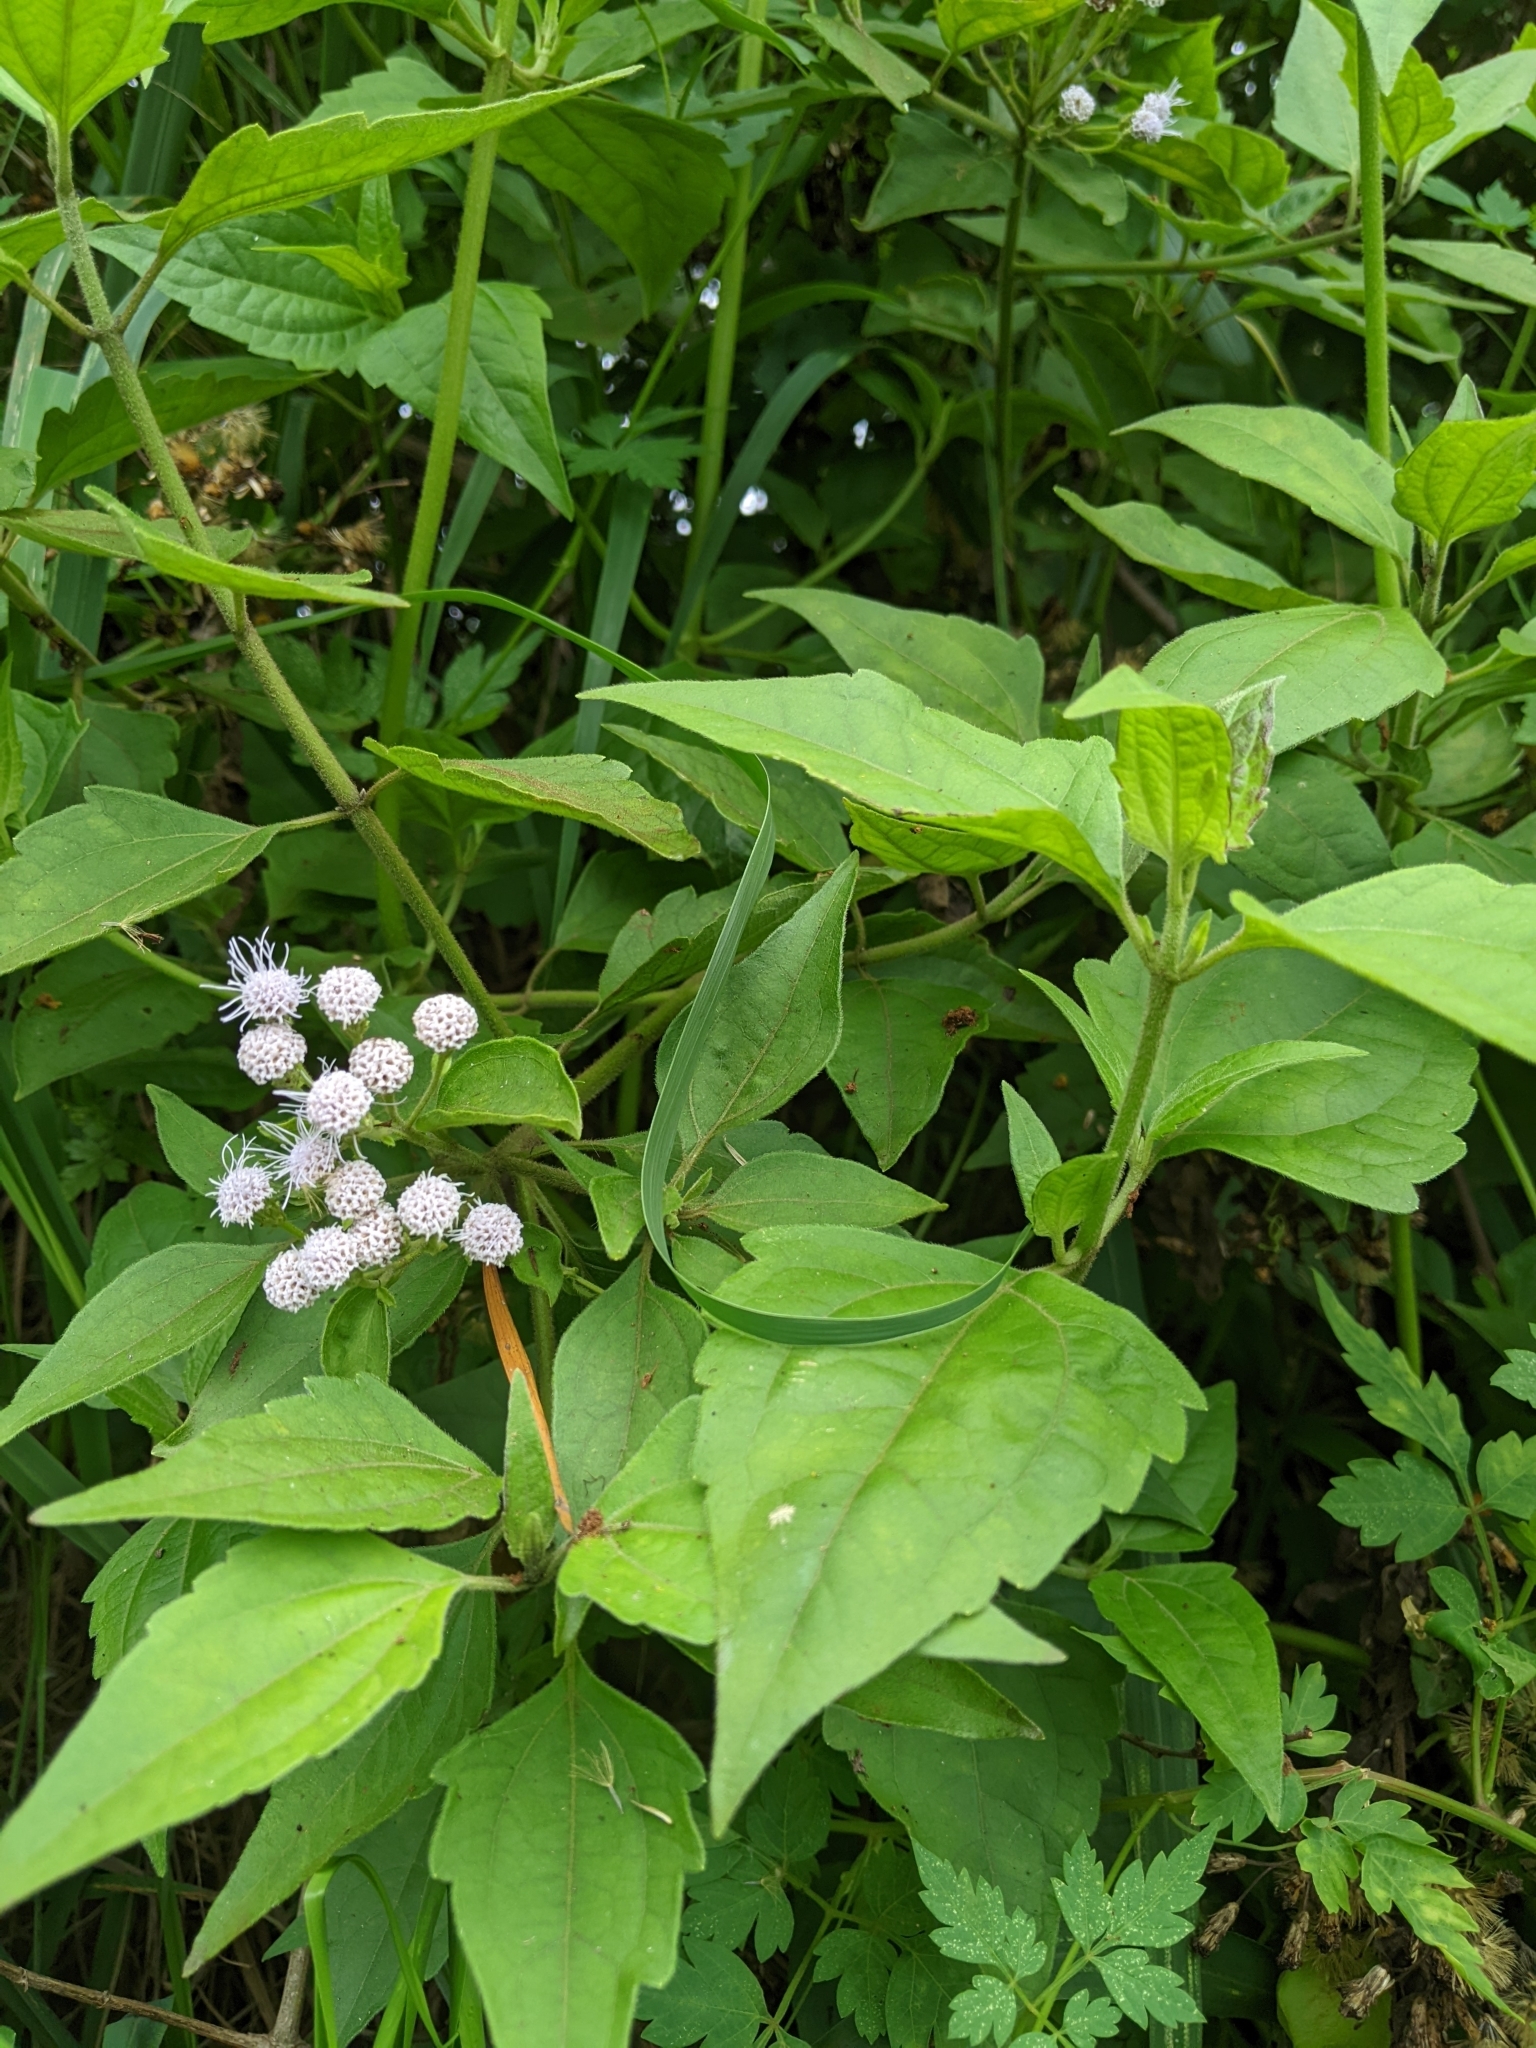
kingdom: Plantae
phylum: Tracheophyta
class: Magnoliopsida
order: Asterales
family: Asteraceae
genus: Chromolaena
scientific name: Chromolaena odorata
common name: Siamweed
